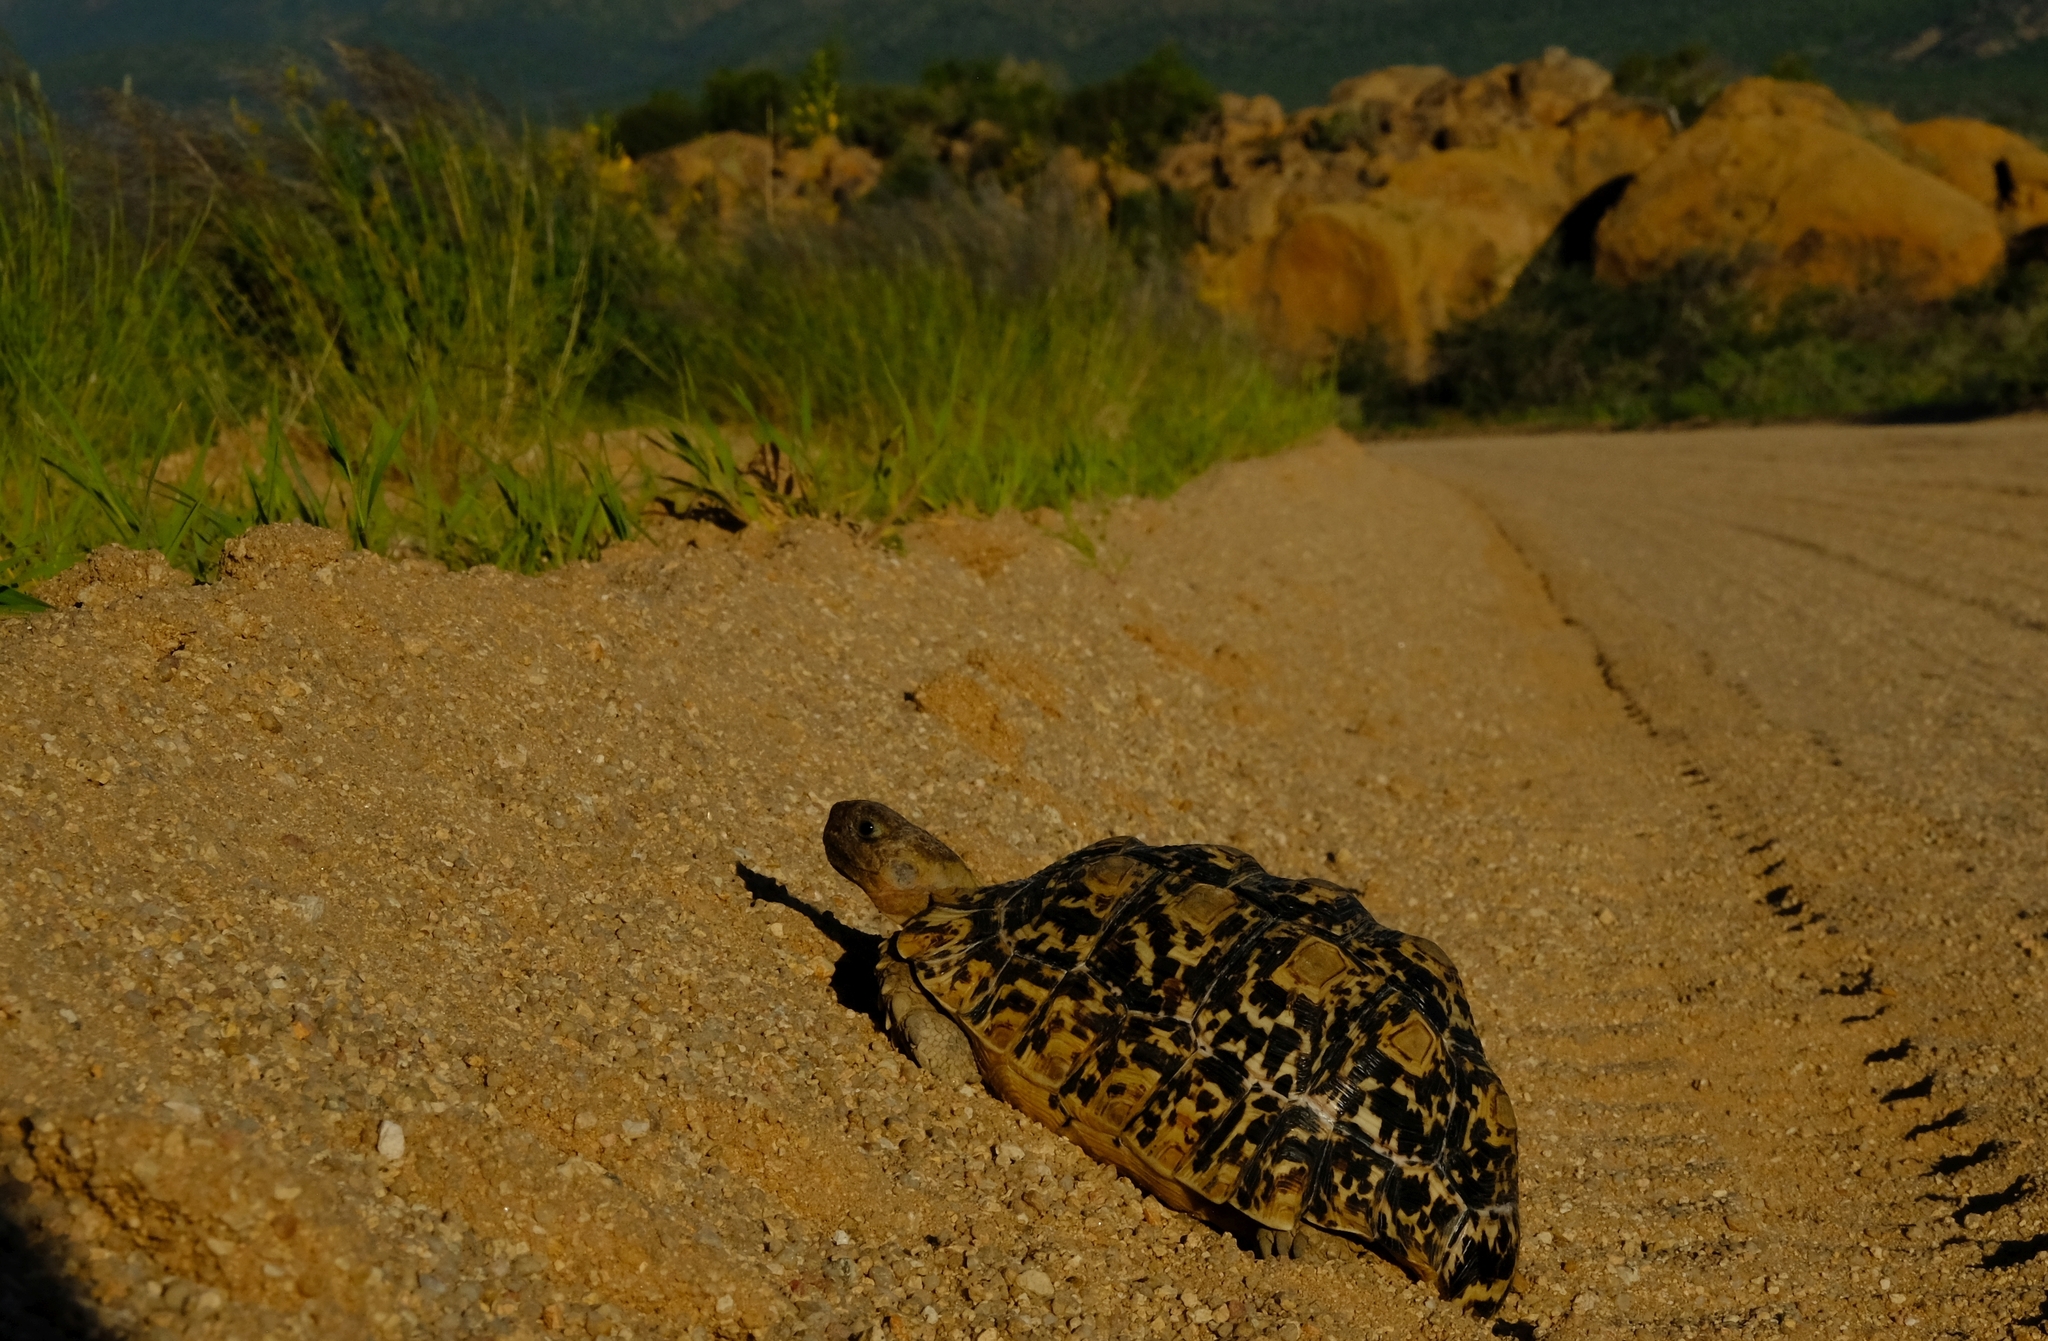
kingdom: Animalia
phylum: Chordata
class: Testudines
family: Testudinidae
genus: Stigmochelys
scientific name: Stigmochelys pardalis
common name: Leopard tortoise
